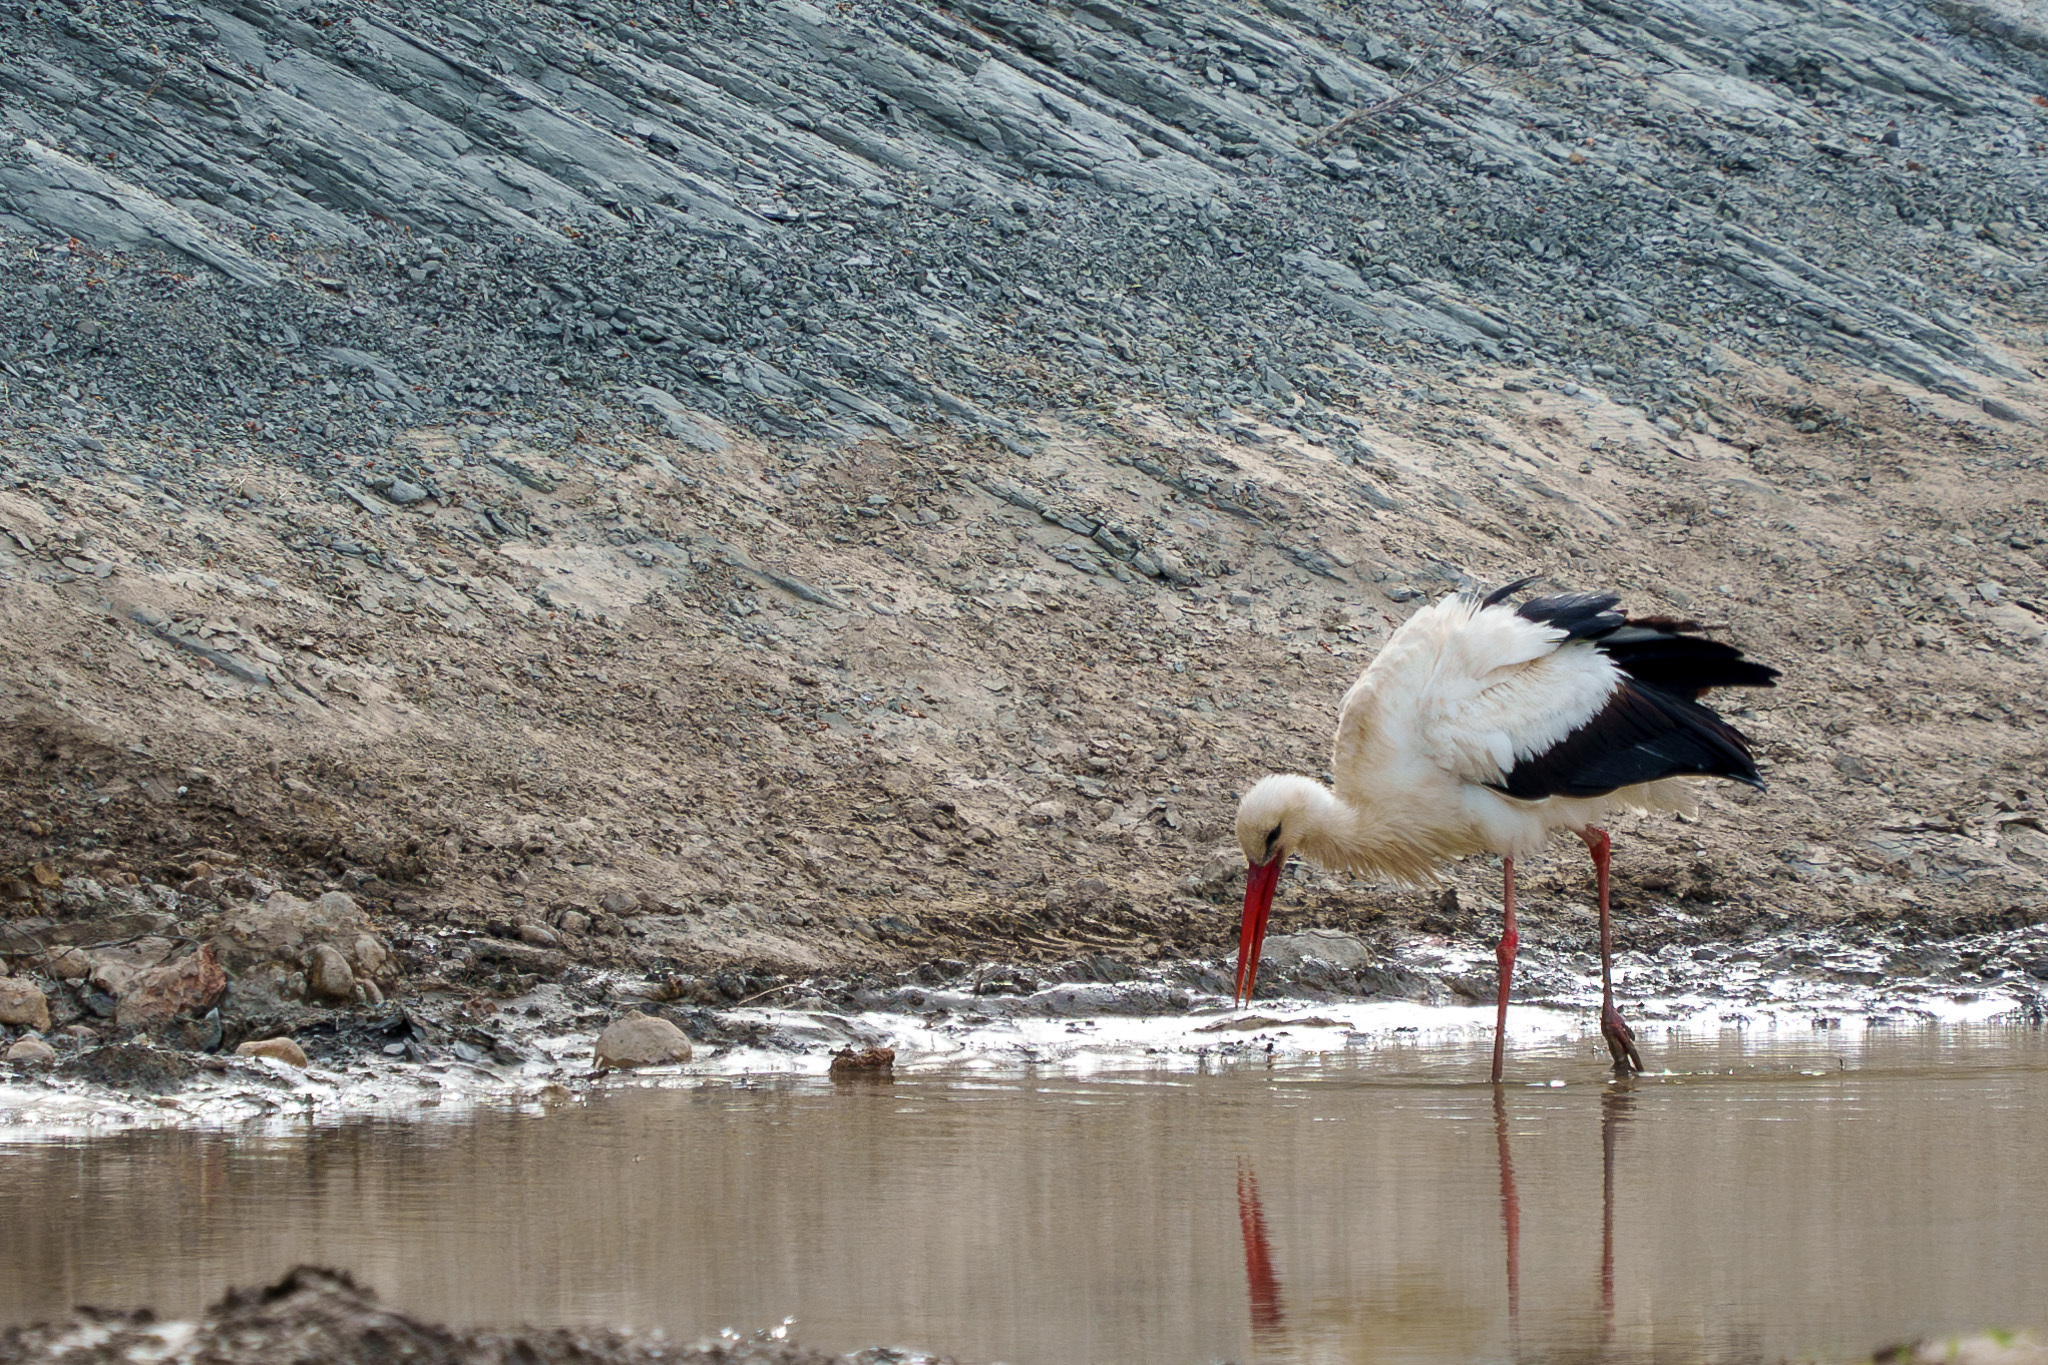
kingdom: Animalia
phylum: Chordata
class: Aves
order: Ciconiiformes
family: Ciconiidae
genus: Ciconia
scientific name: Ciconia ciconia
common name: White stork
